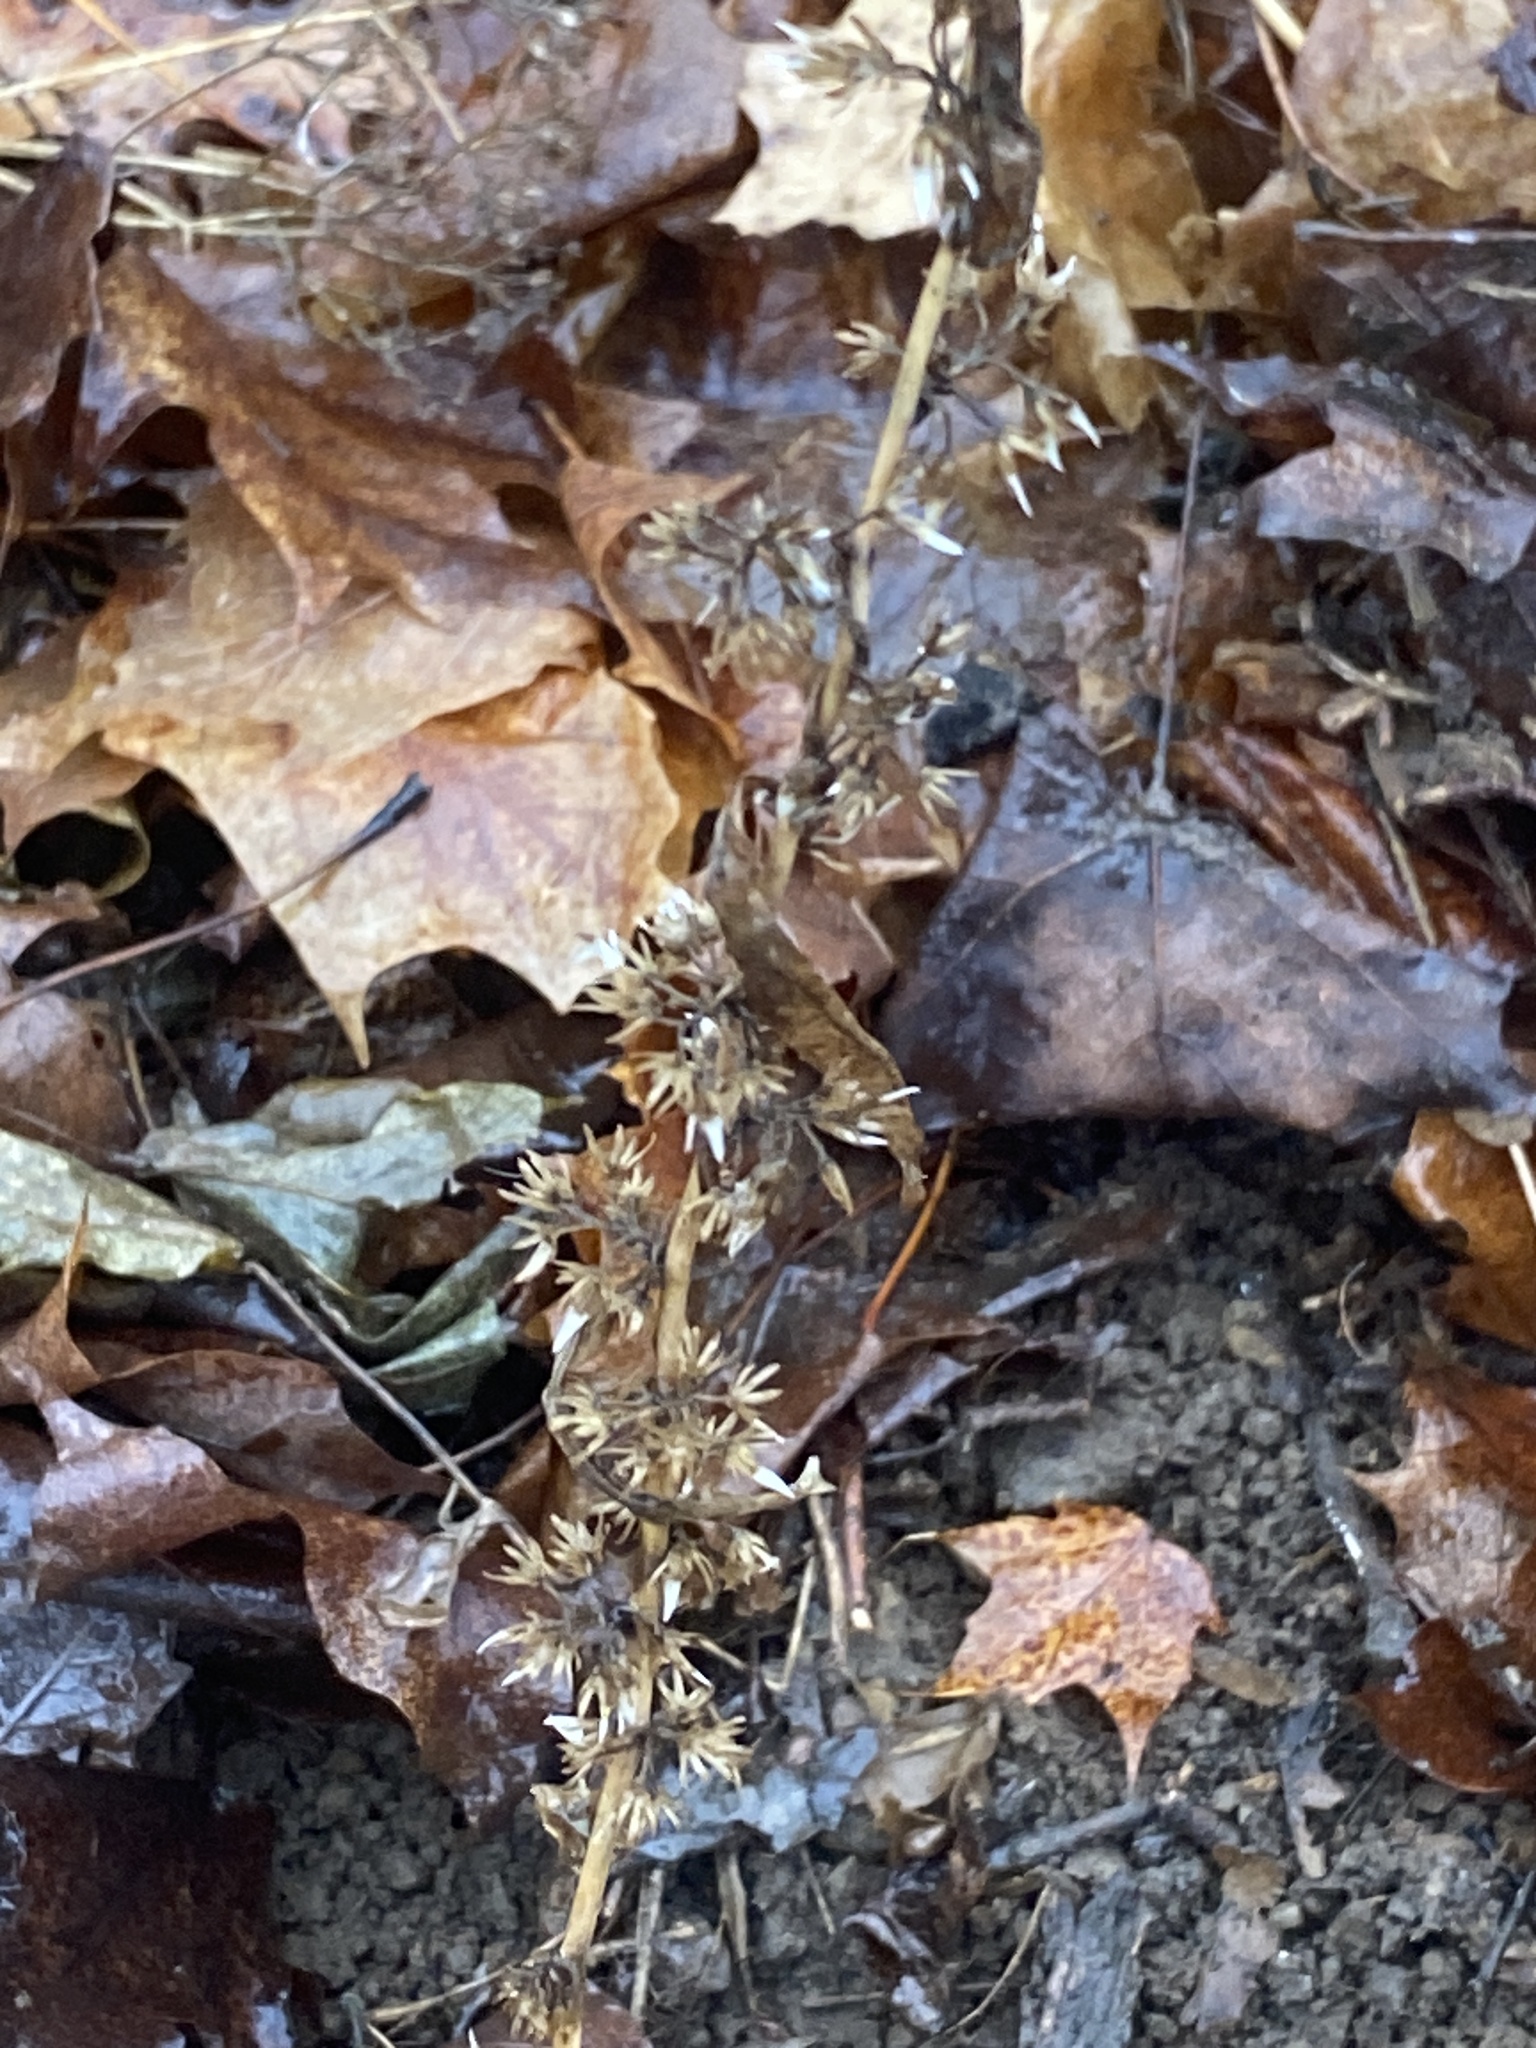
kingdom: Plantae
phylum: Tracheophyta
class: Magnoliopsida
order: Asterales
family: Asteraceae
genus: Solidago
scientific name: Solidago caesia
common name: Woodland goldenrod
